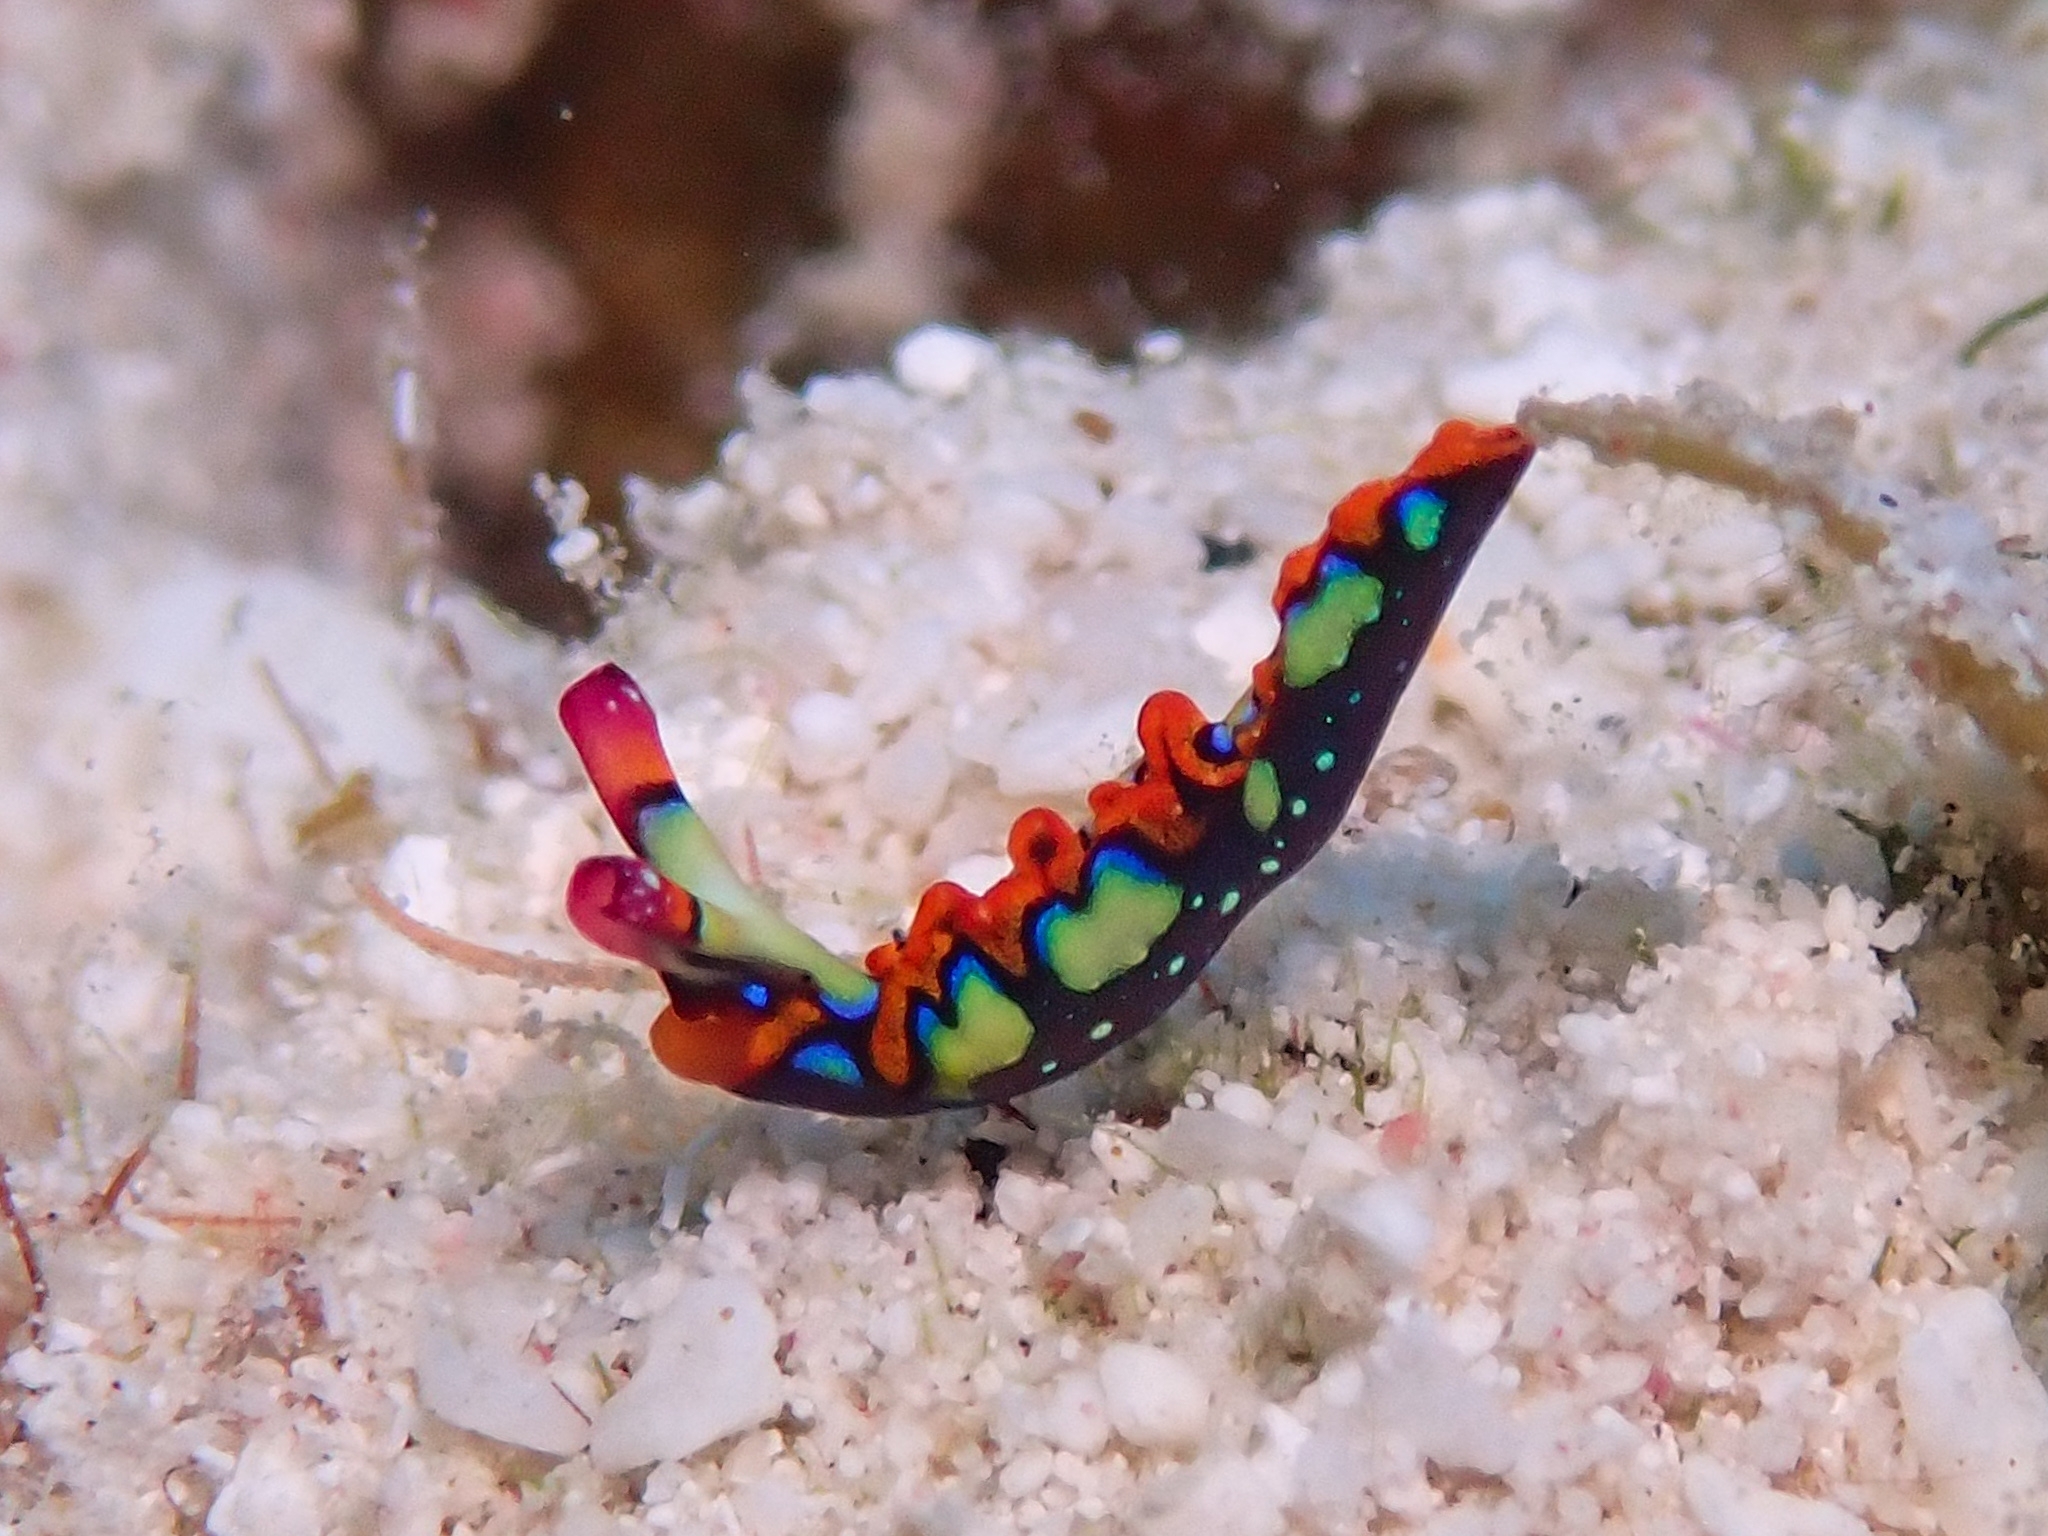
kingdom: Animalia
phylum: Mollusca
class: Gastropoda
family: Plakobranchidae
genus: Thuridilla
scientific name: Thuridilla picta
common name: Painted elysia
